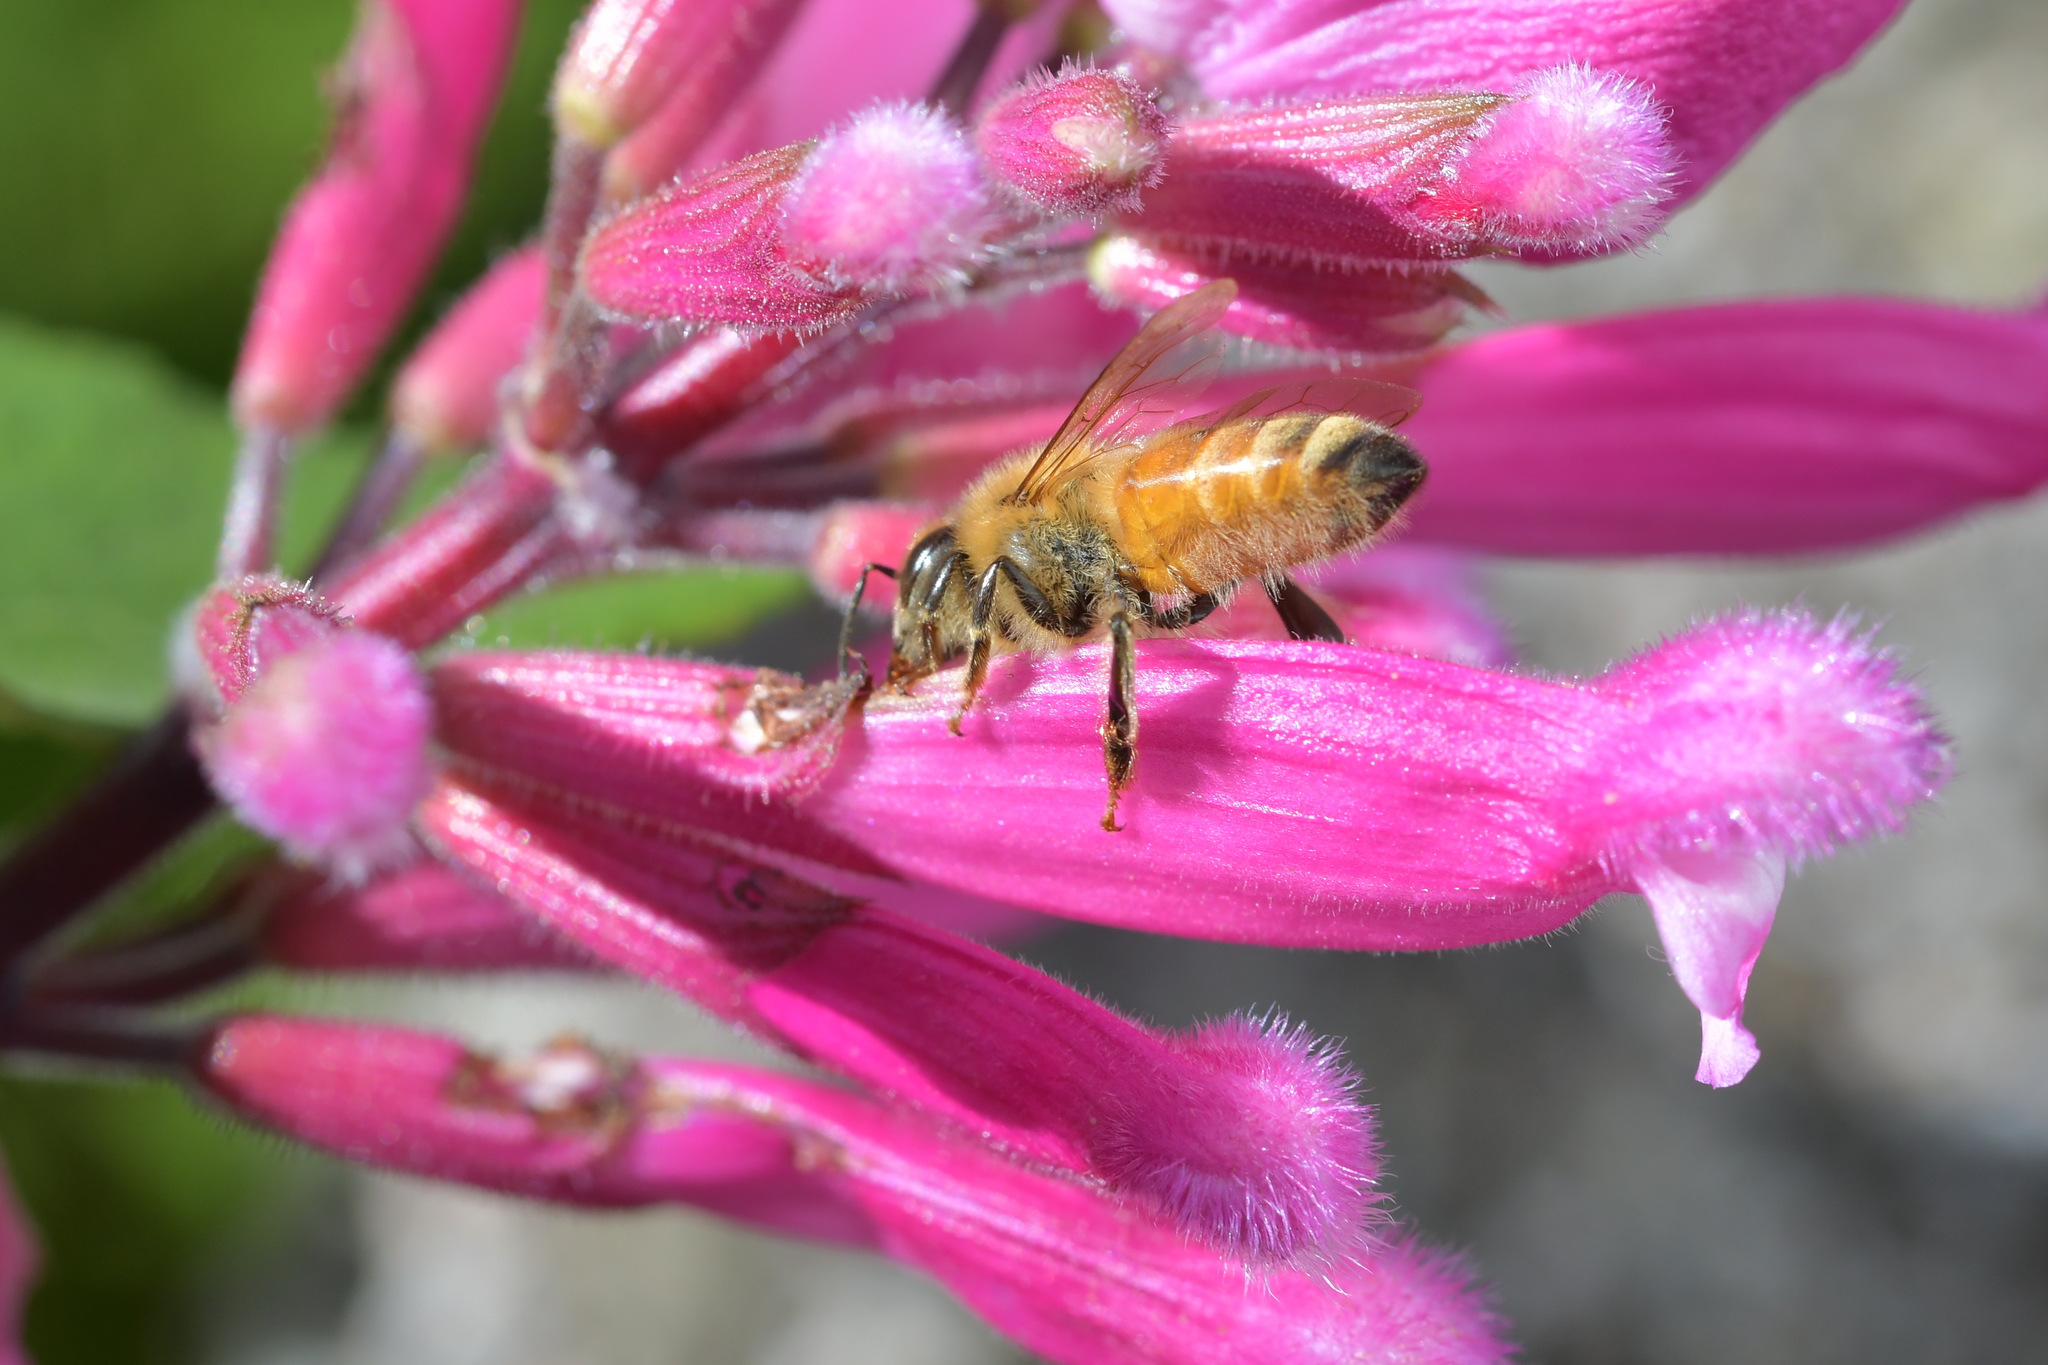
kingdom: Animalia
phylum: Arthropoda
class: Insecta
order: Hymenoptera
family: Apidae
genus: Apis
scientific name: Apis mellifera
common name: Honey bee
